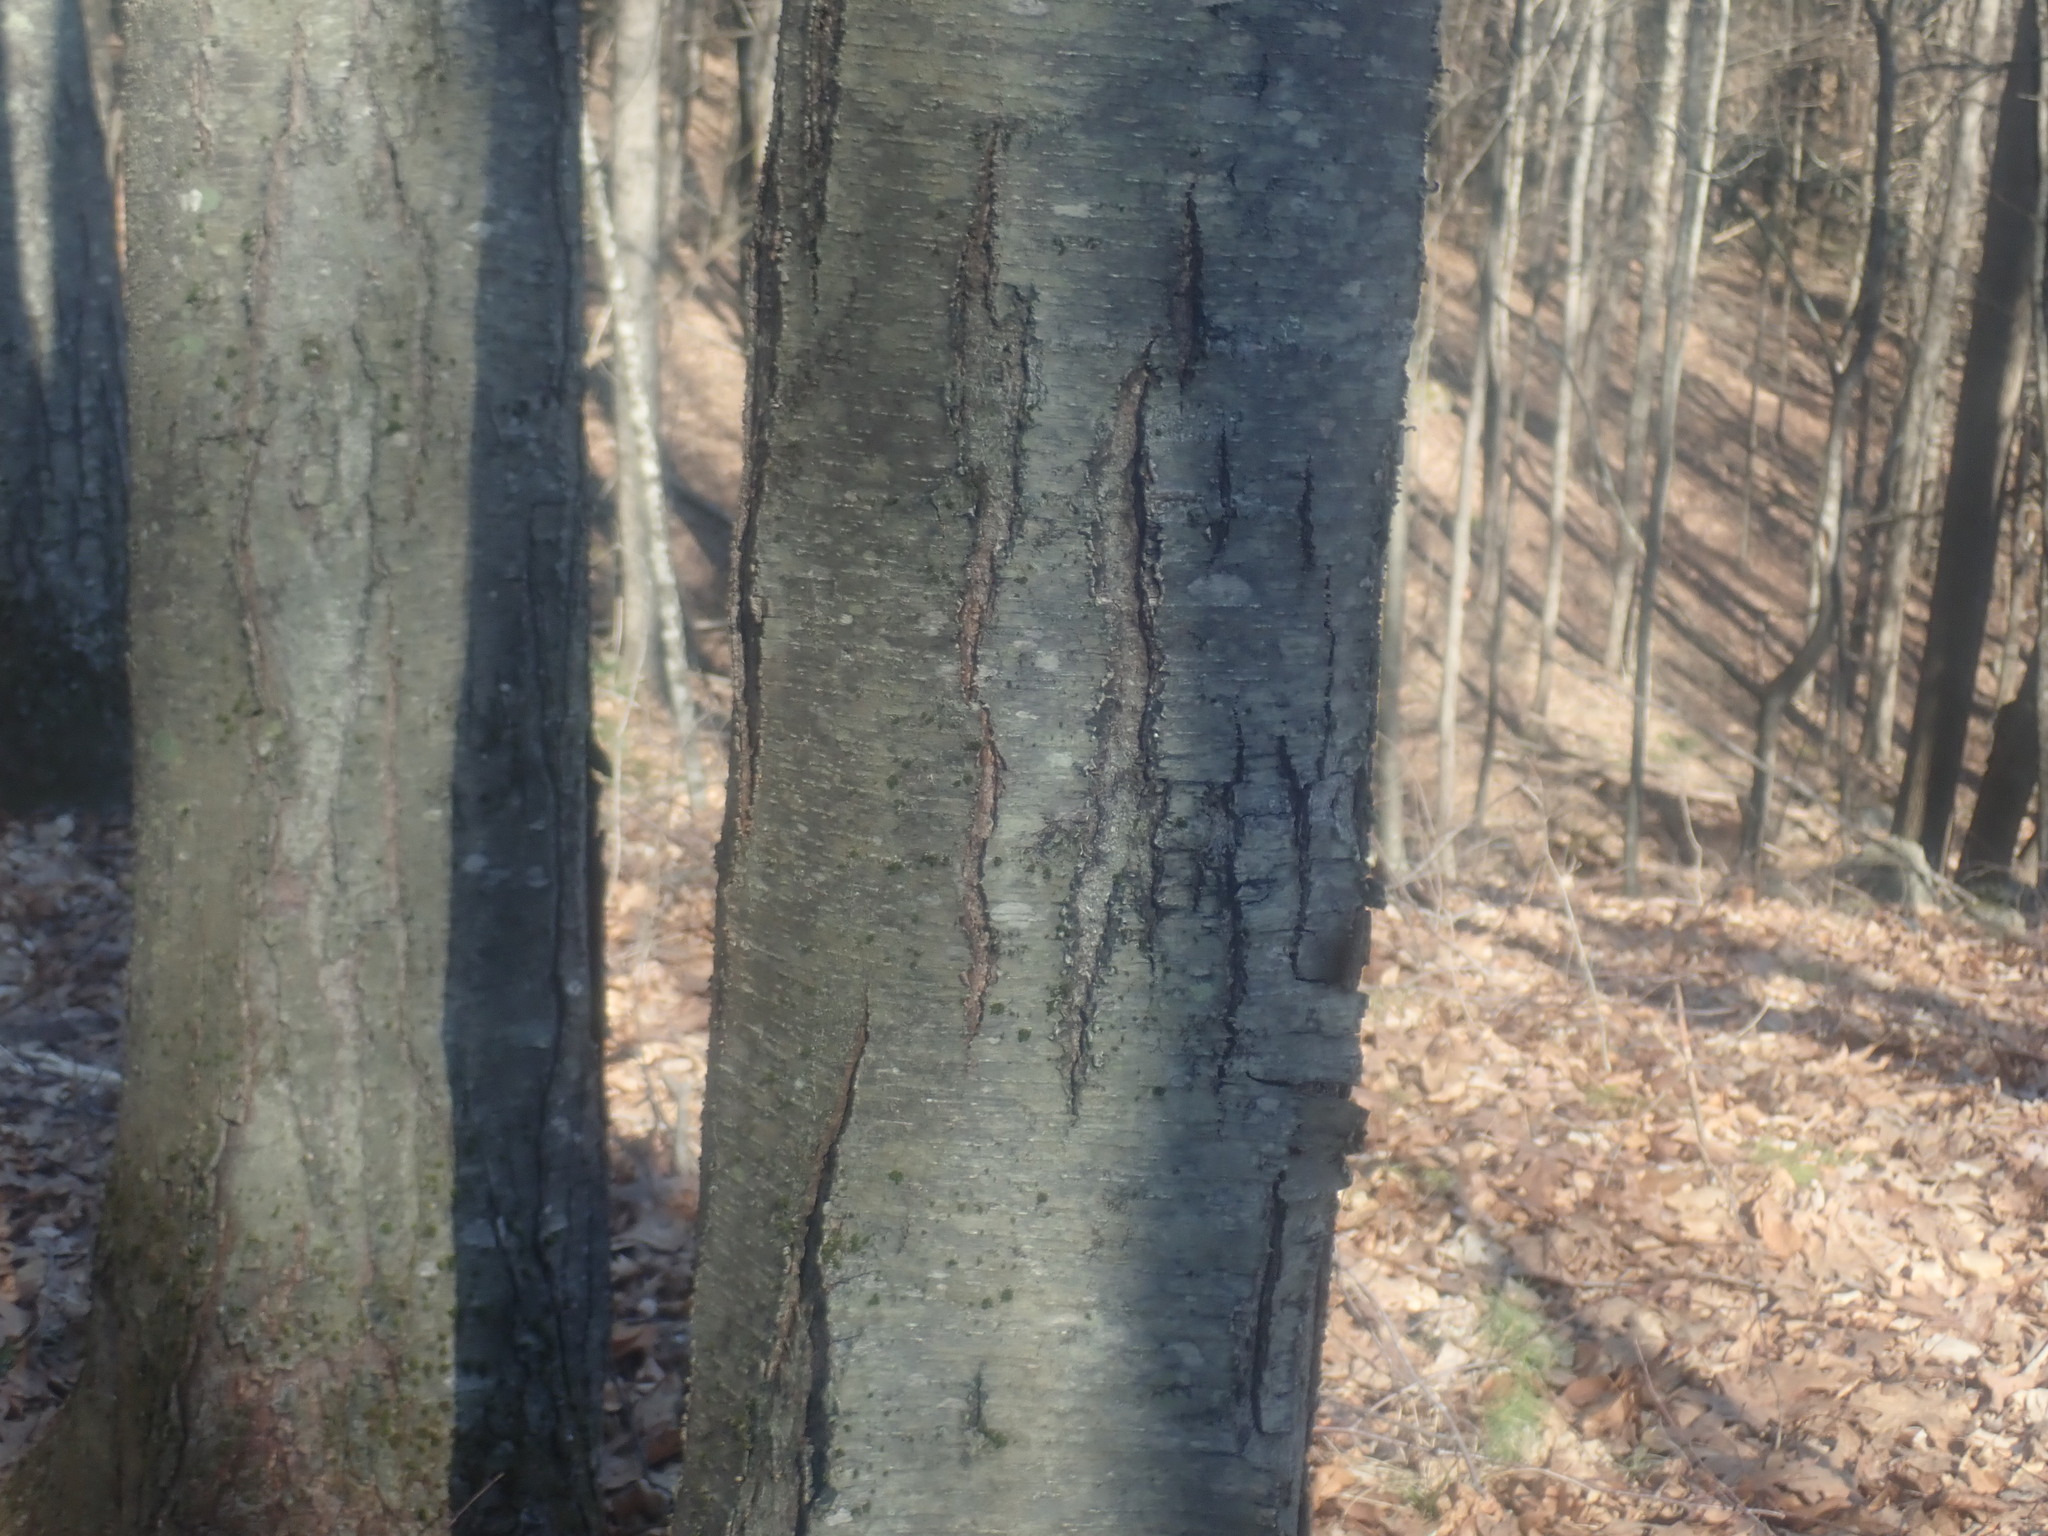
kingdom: Plantae
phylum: Tracheophyta
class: Magnoliopsida
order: Fagales
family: Betulaceae
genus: Betula
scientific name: Betula lenta
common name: Black birch
